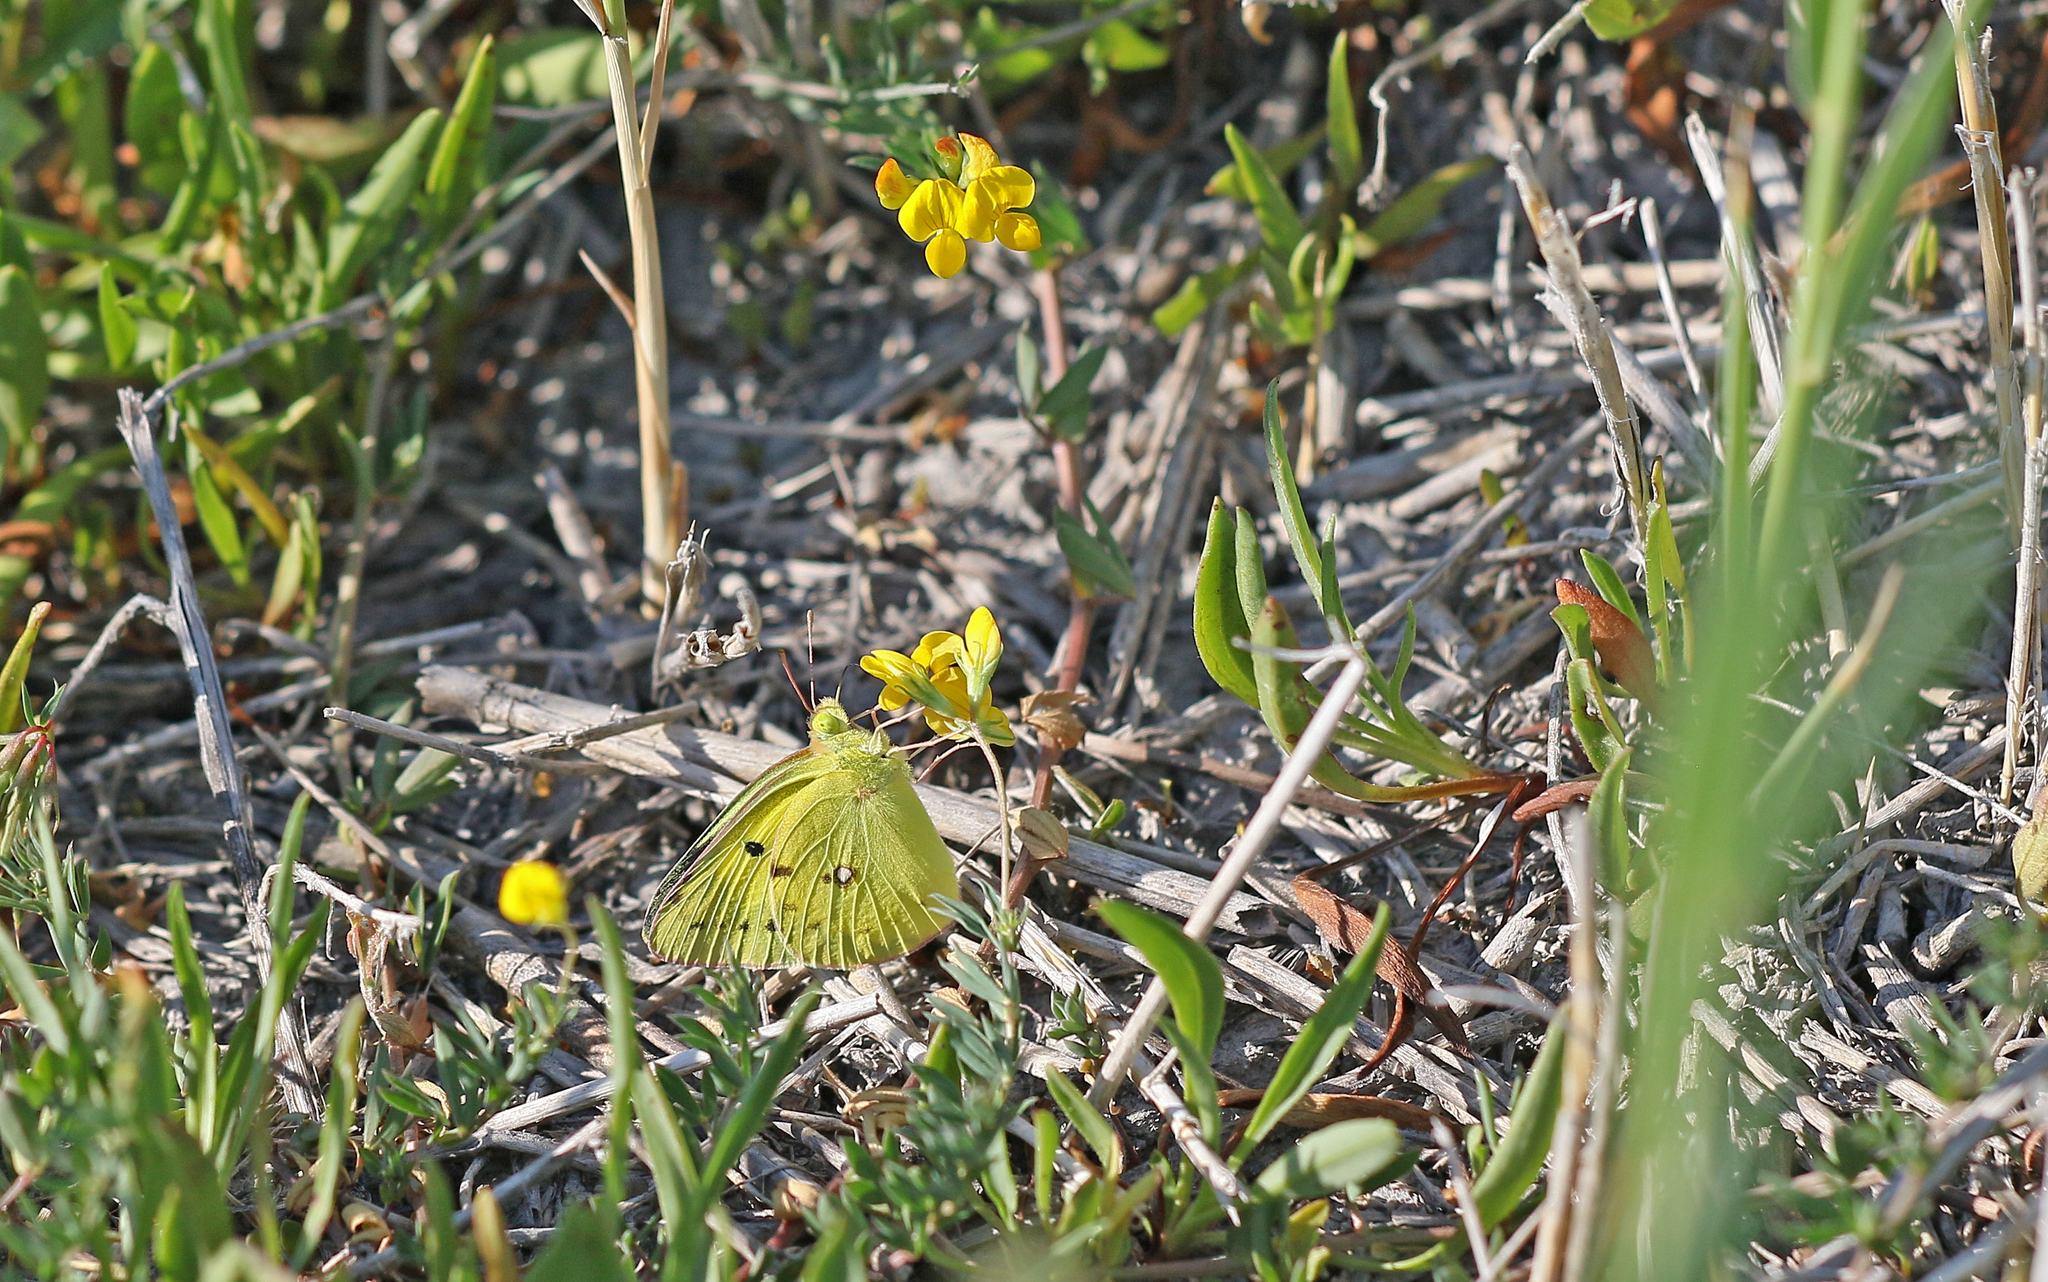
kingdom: Animalia
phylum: Arthropoda
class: Insecta
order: Lepidoptera
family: Pieridae
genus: Colias
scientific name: Colias erate
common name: Eastern pale clouded yellow
